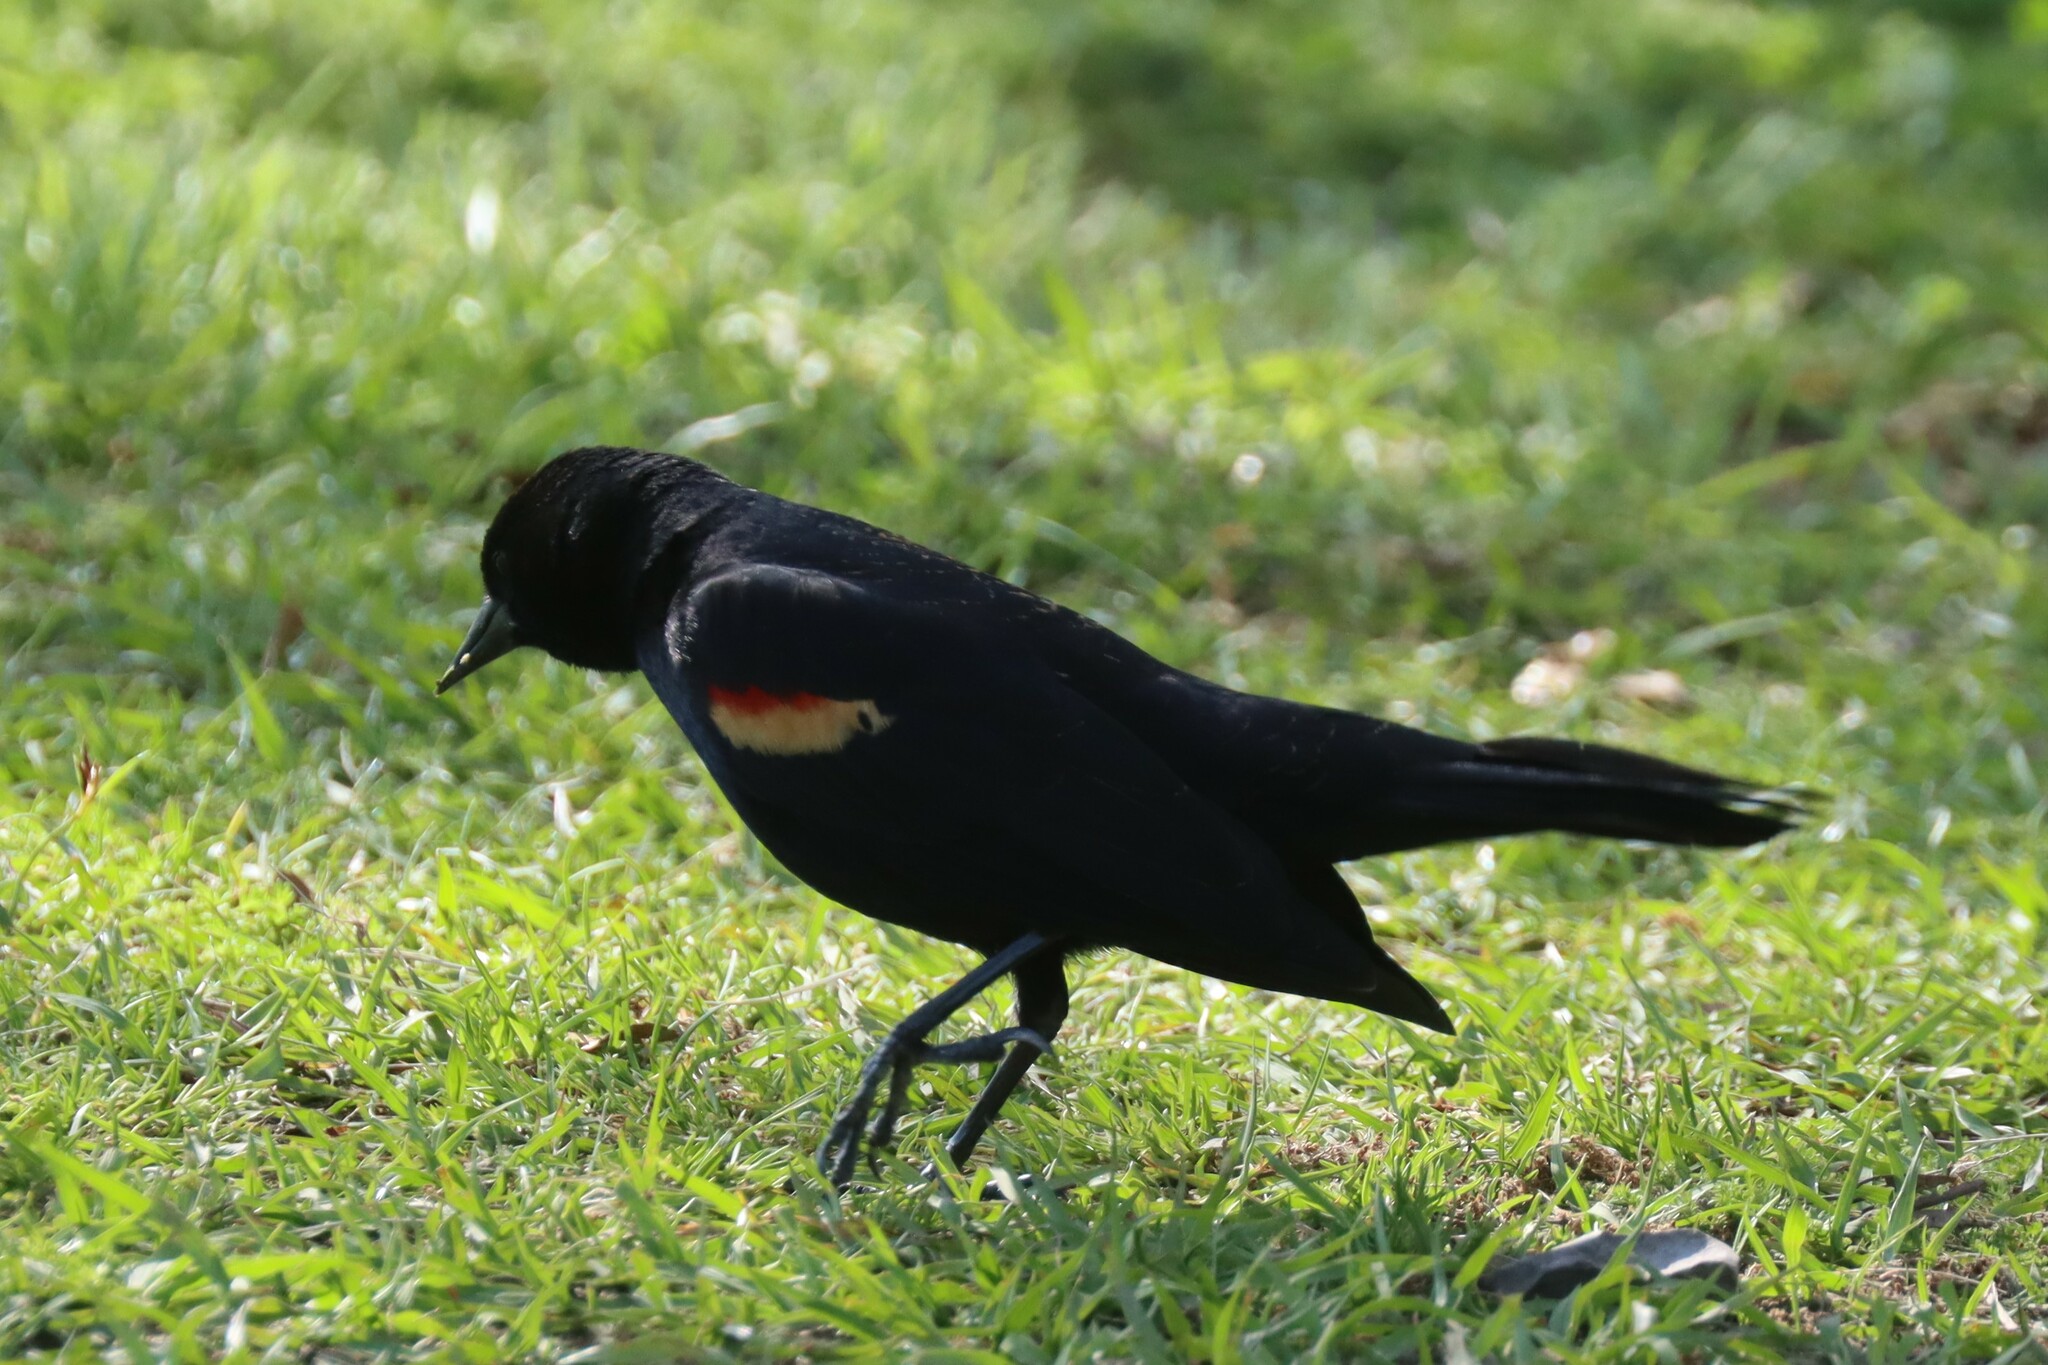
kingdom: Animalia
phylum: Chordata
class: Aves
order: Passeriformes
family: Icteridae
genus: Agelaius
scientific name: Agelaius phoeniceus
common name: Red-winged blackbird
